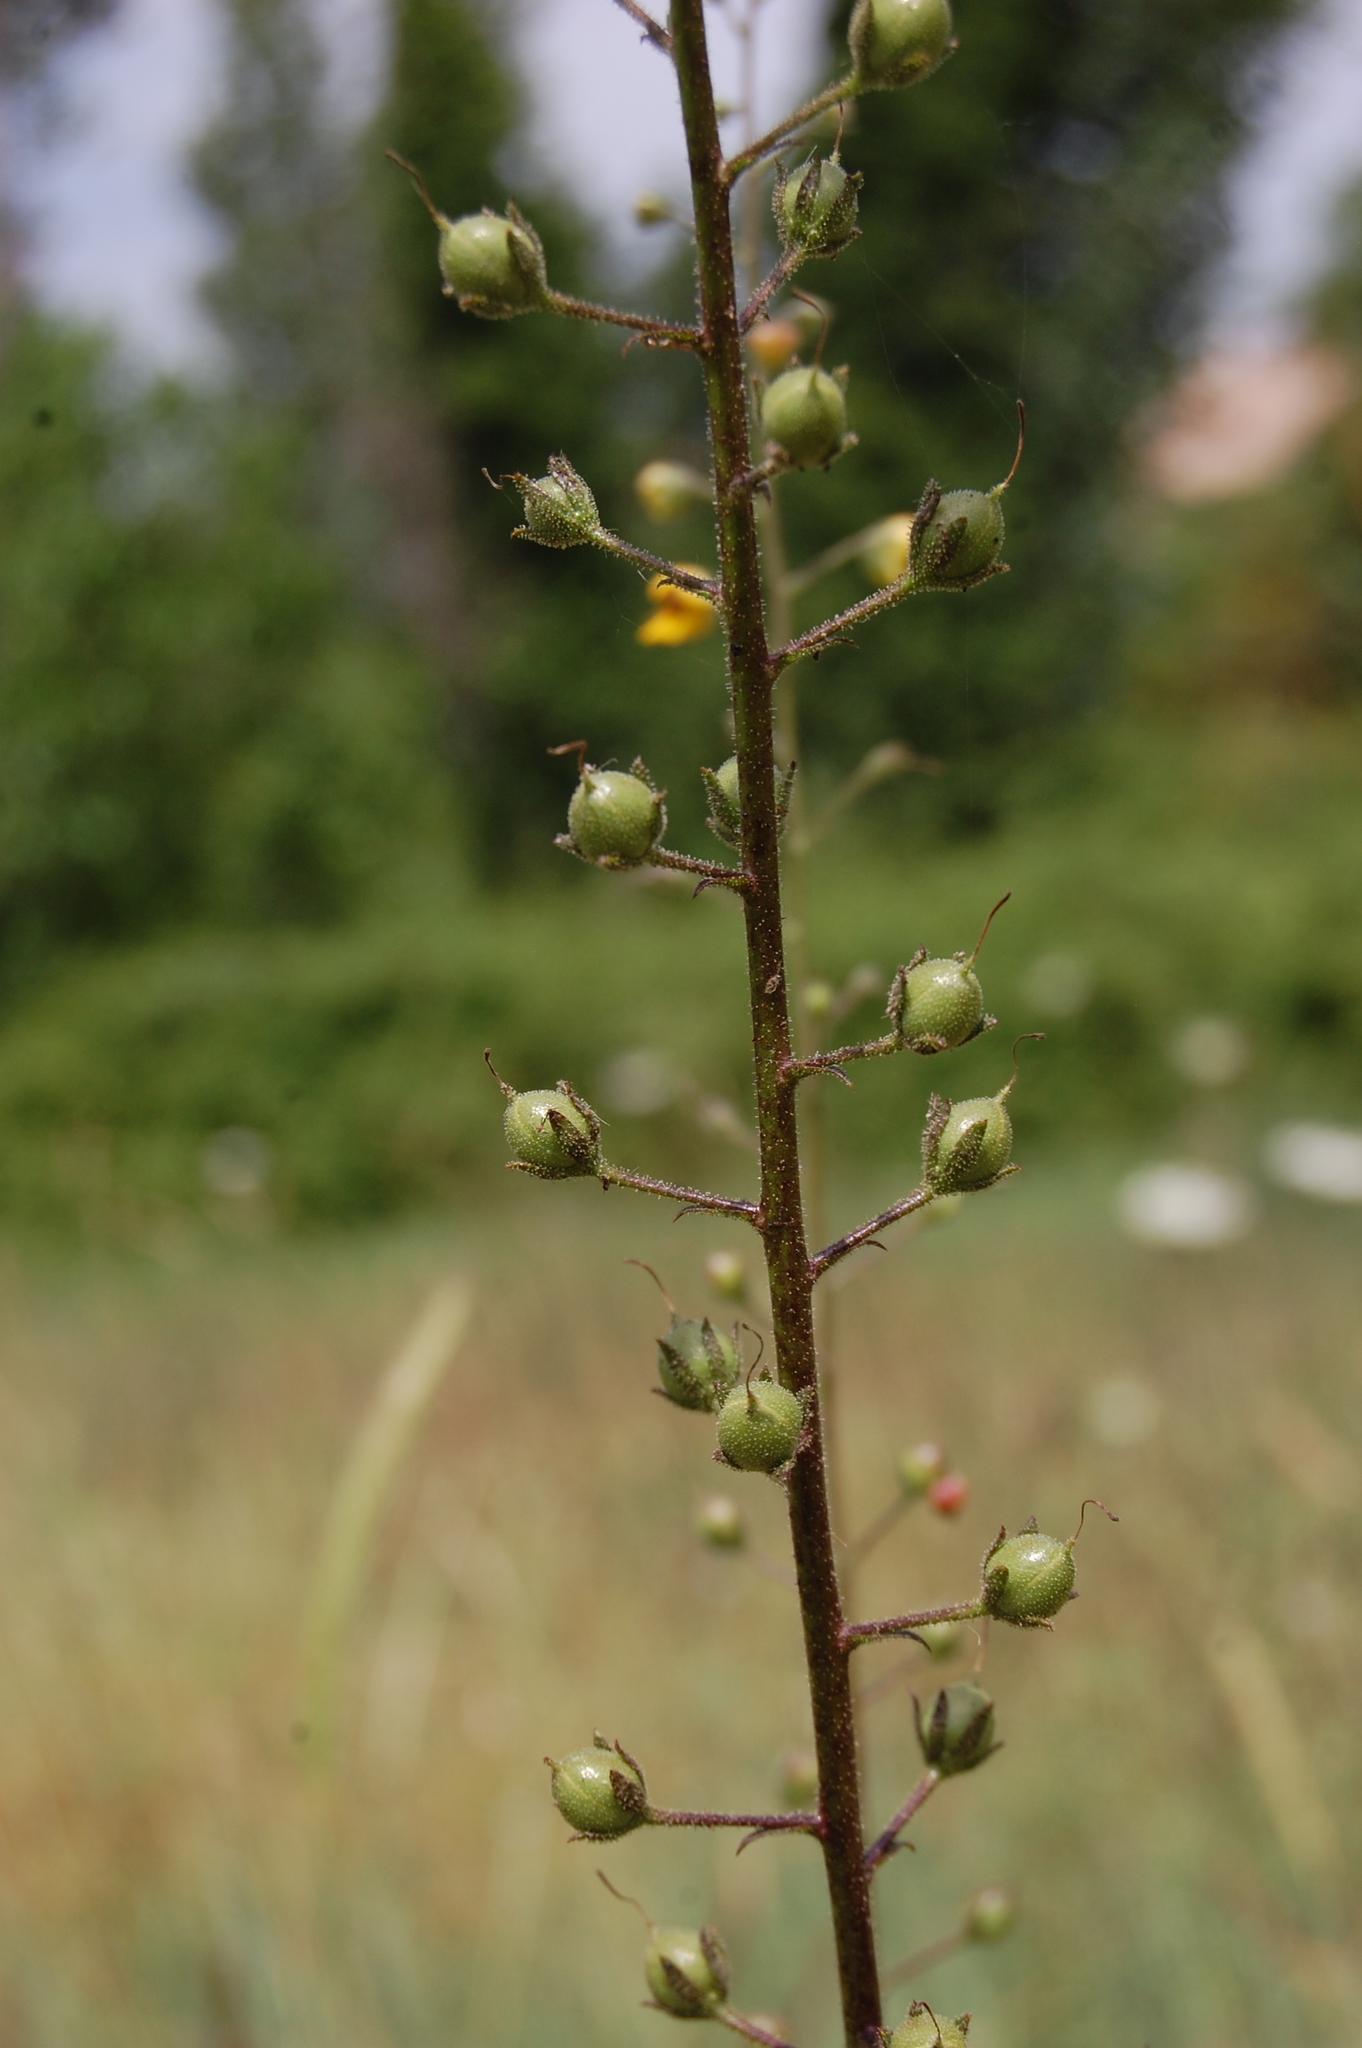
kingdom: Plantae
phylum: Tracheophyta
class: Magnoliopsida
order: Lamiales
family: Scrophulariaceae
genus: Verbascum
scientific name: Verbascum blattaria
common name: Moth mullein
